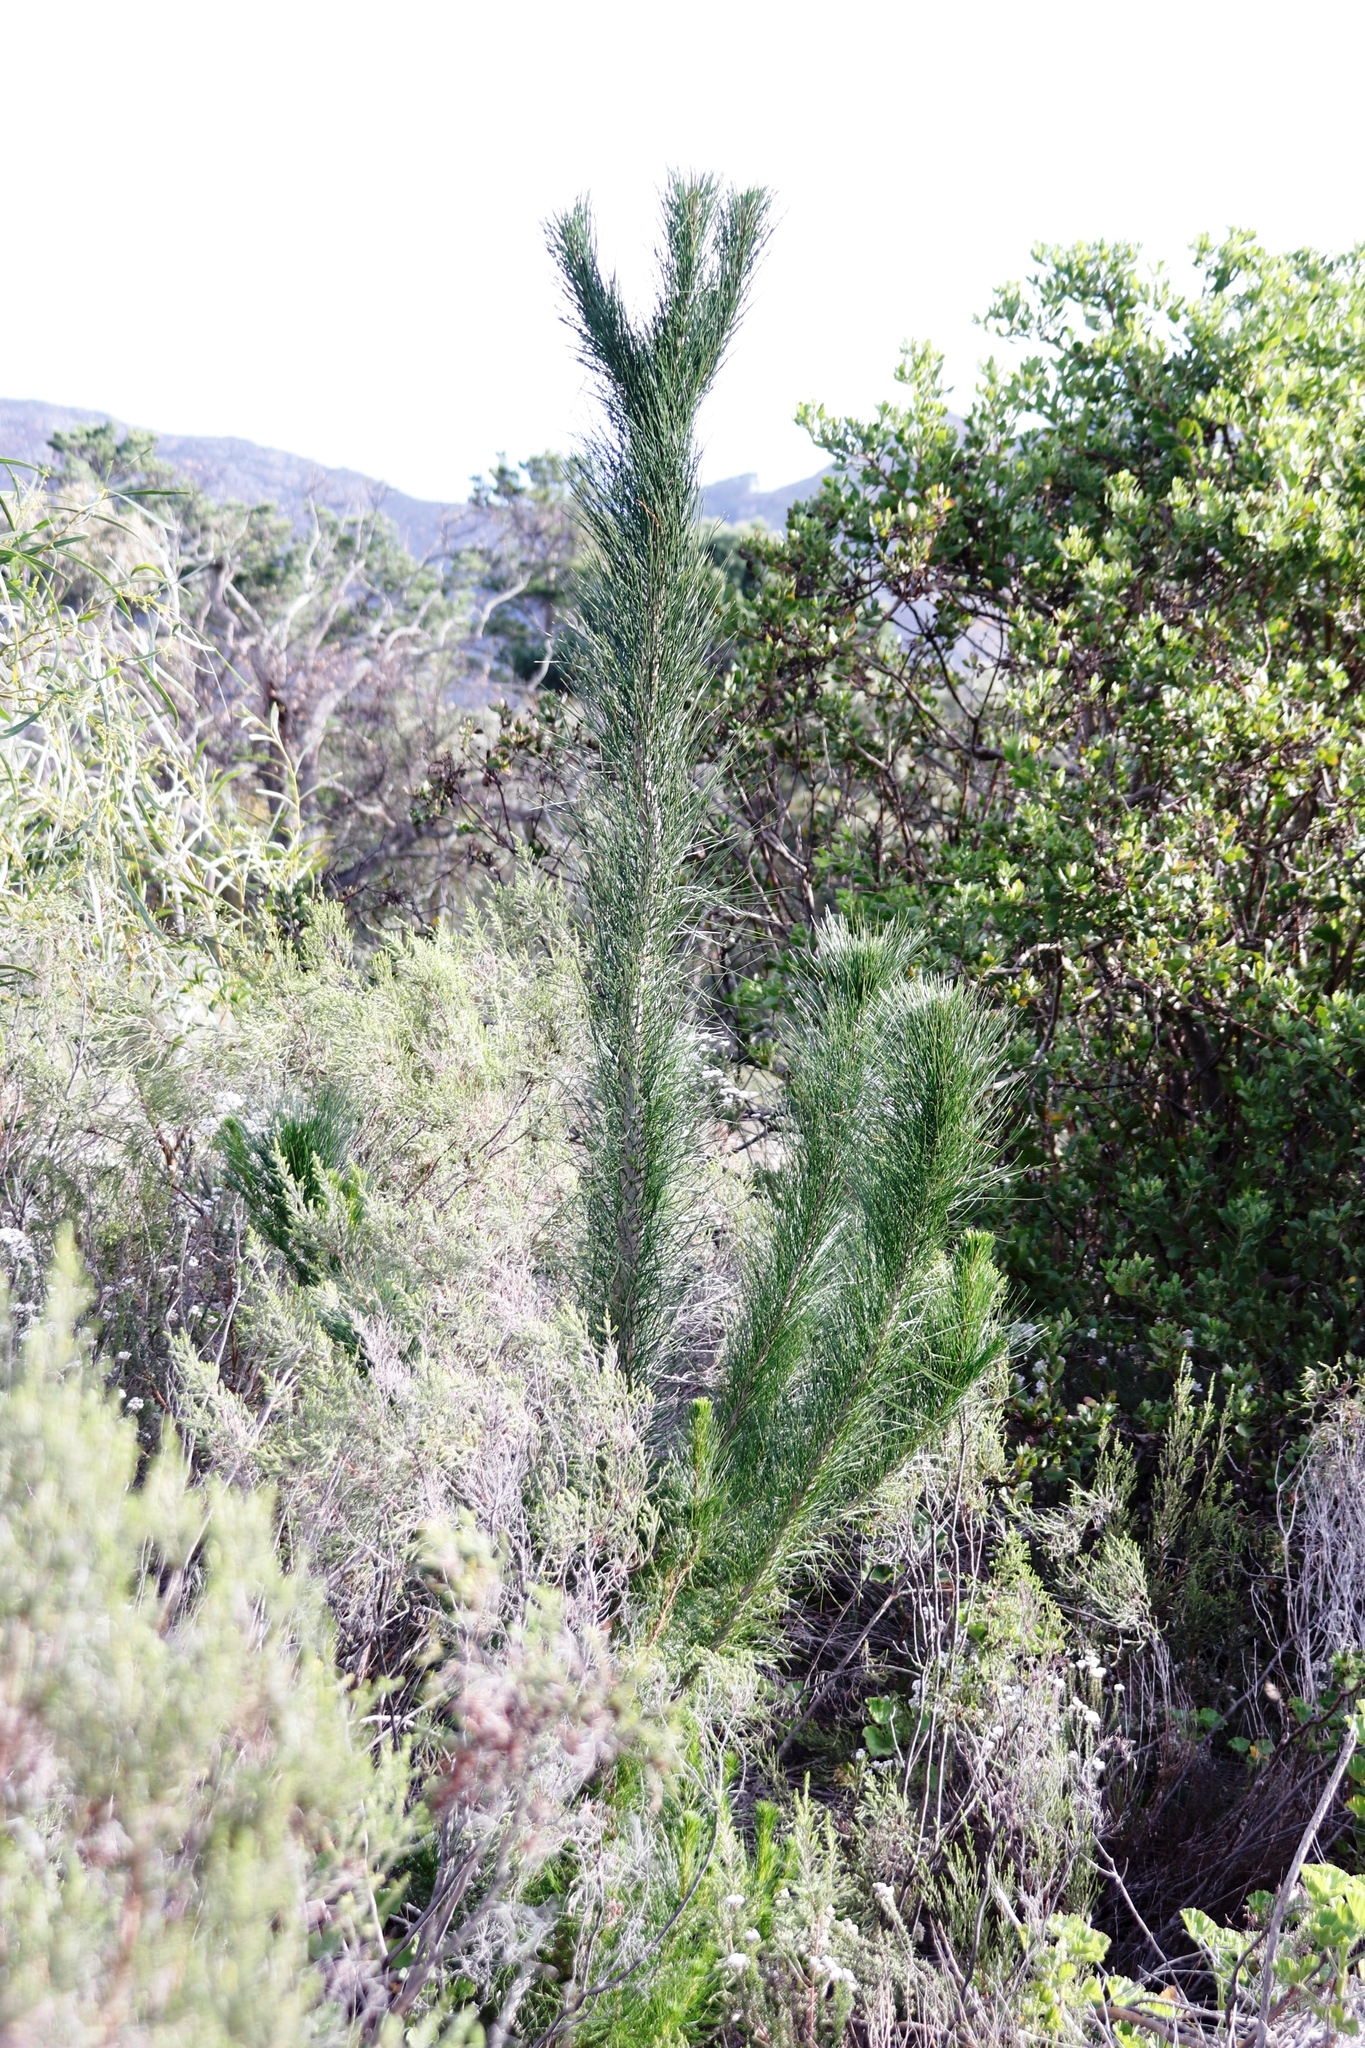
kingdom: Plantae
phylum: Tracheophyta
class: Pinopsida
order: Pinales
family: Pinaceae
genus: Pinus
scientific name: Pinus radiata
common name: Monterey pine
